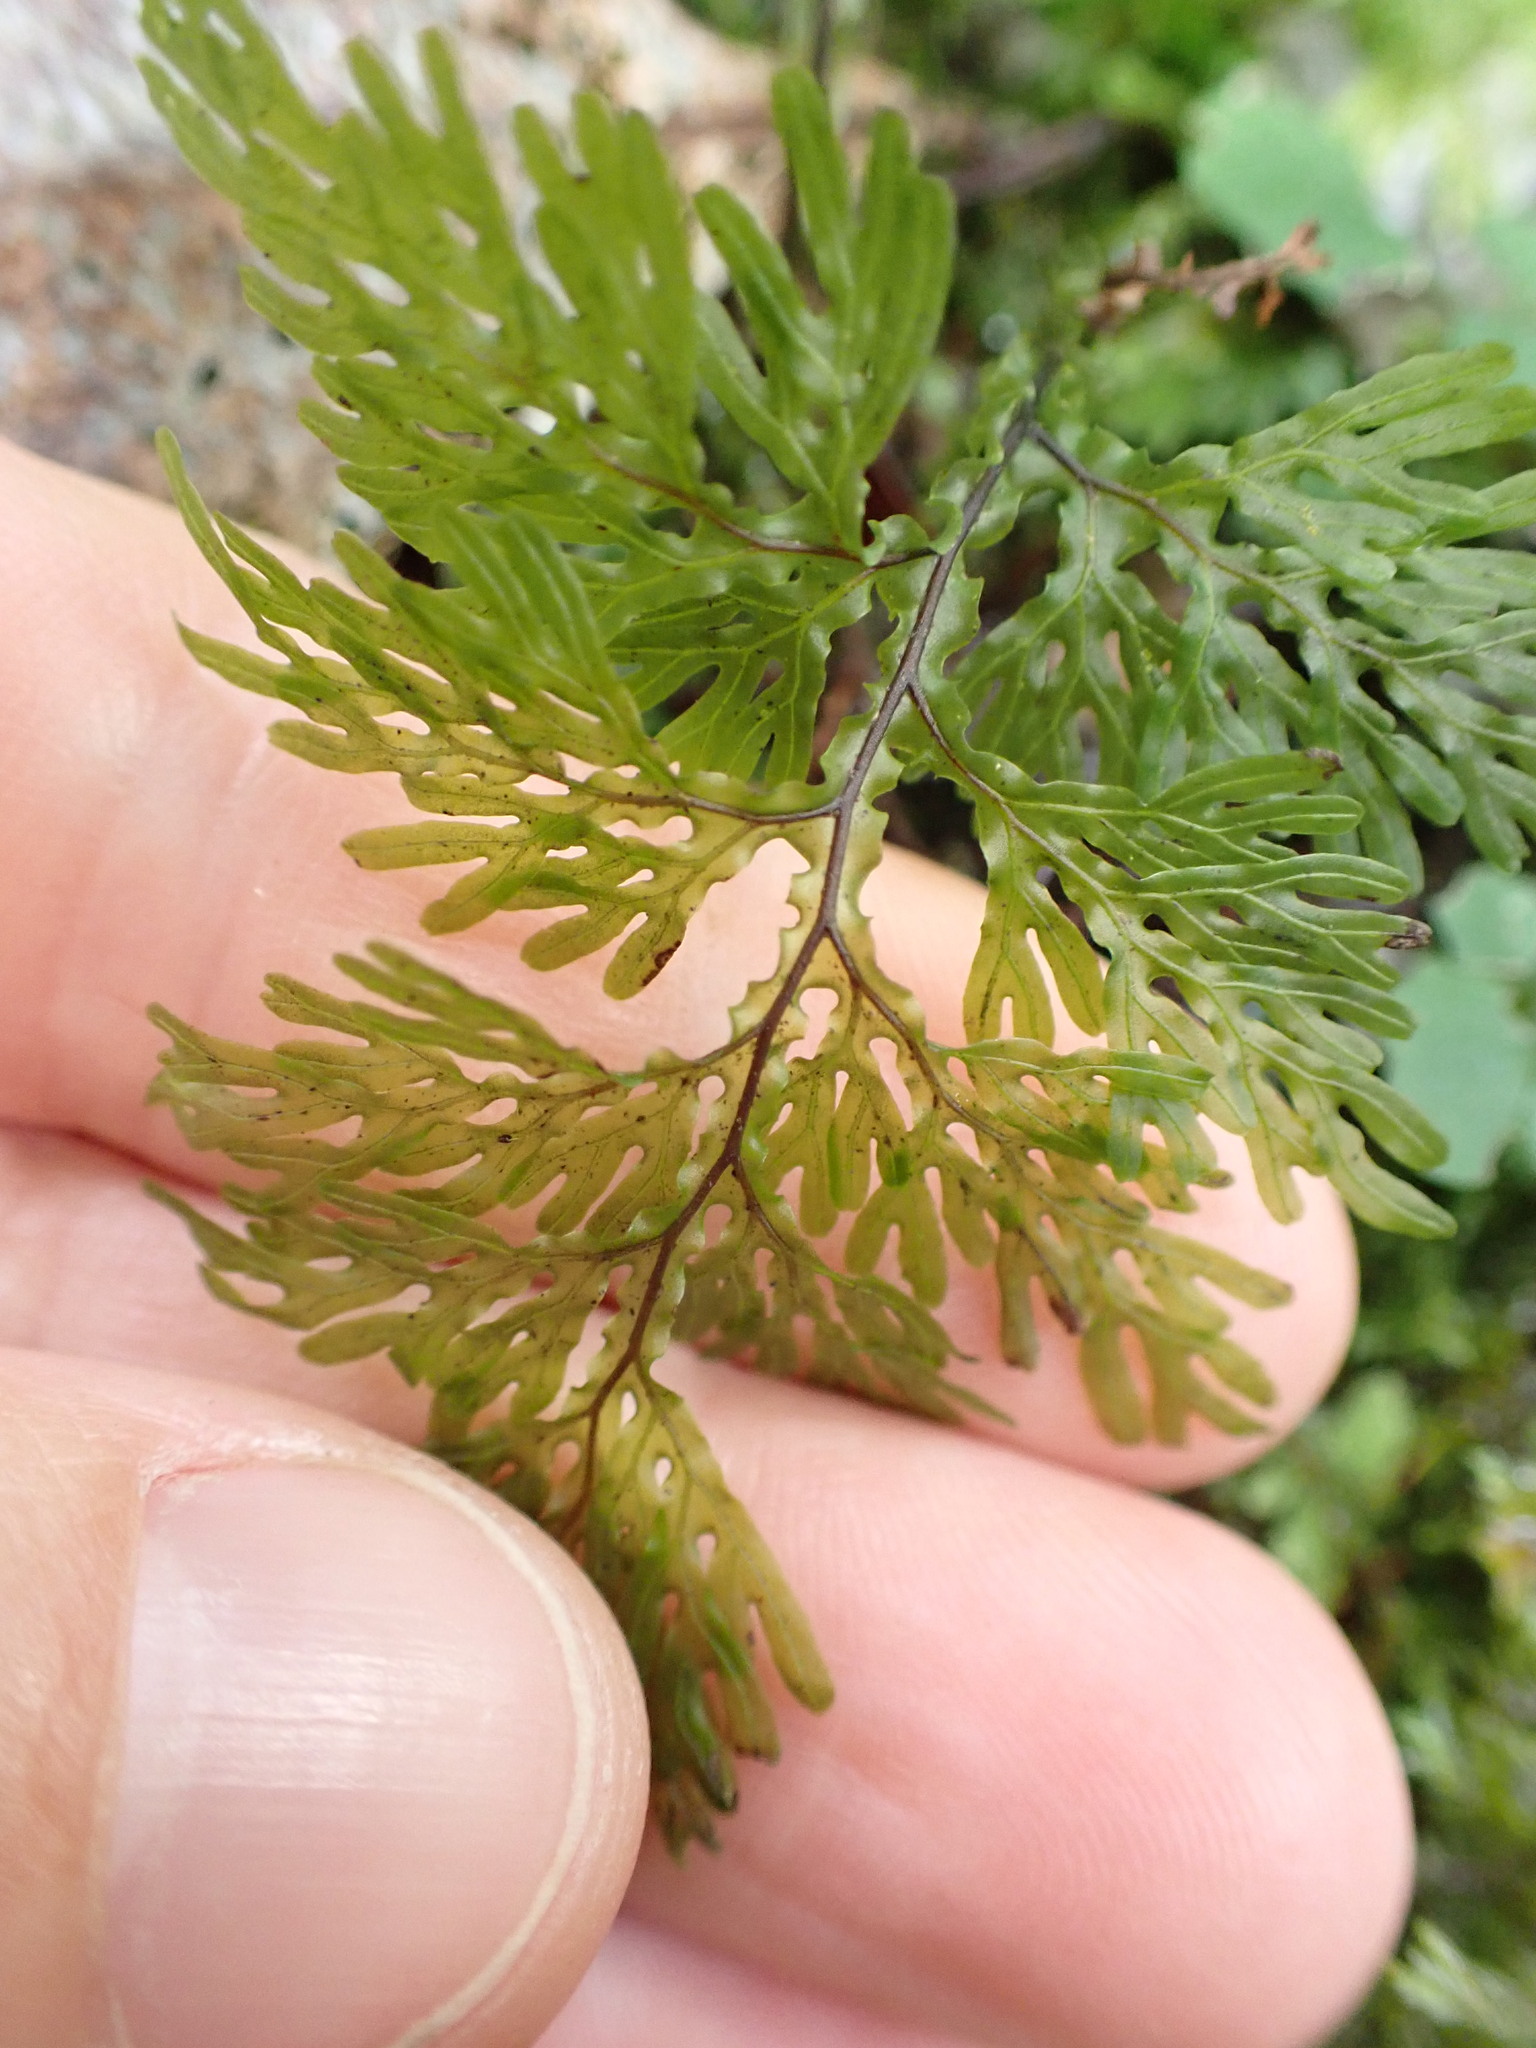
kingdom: Plantae
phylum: Tracheophyta
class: Polypodiopsida
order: Hymenophyllales
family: Hymenophyllaceae
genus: Hymenophyllum
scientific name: Hymenophyllum flexuosum
